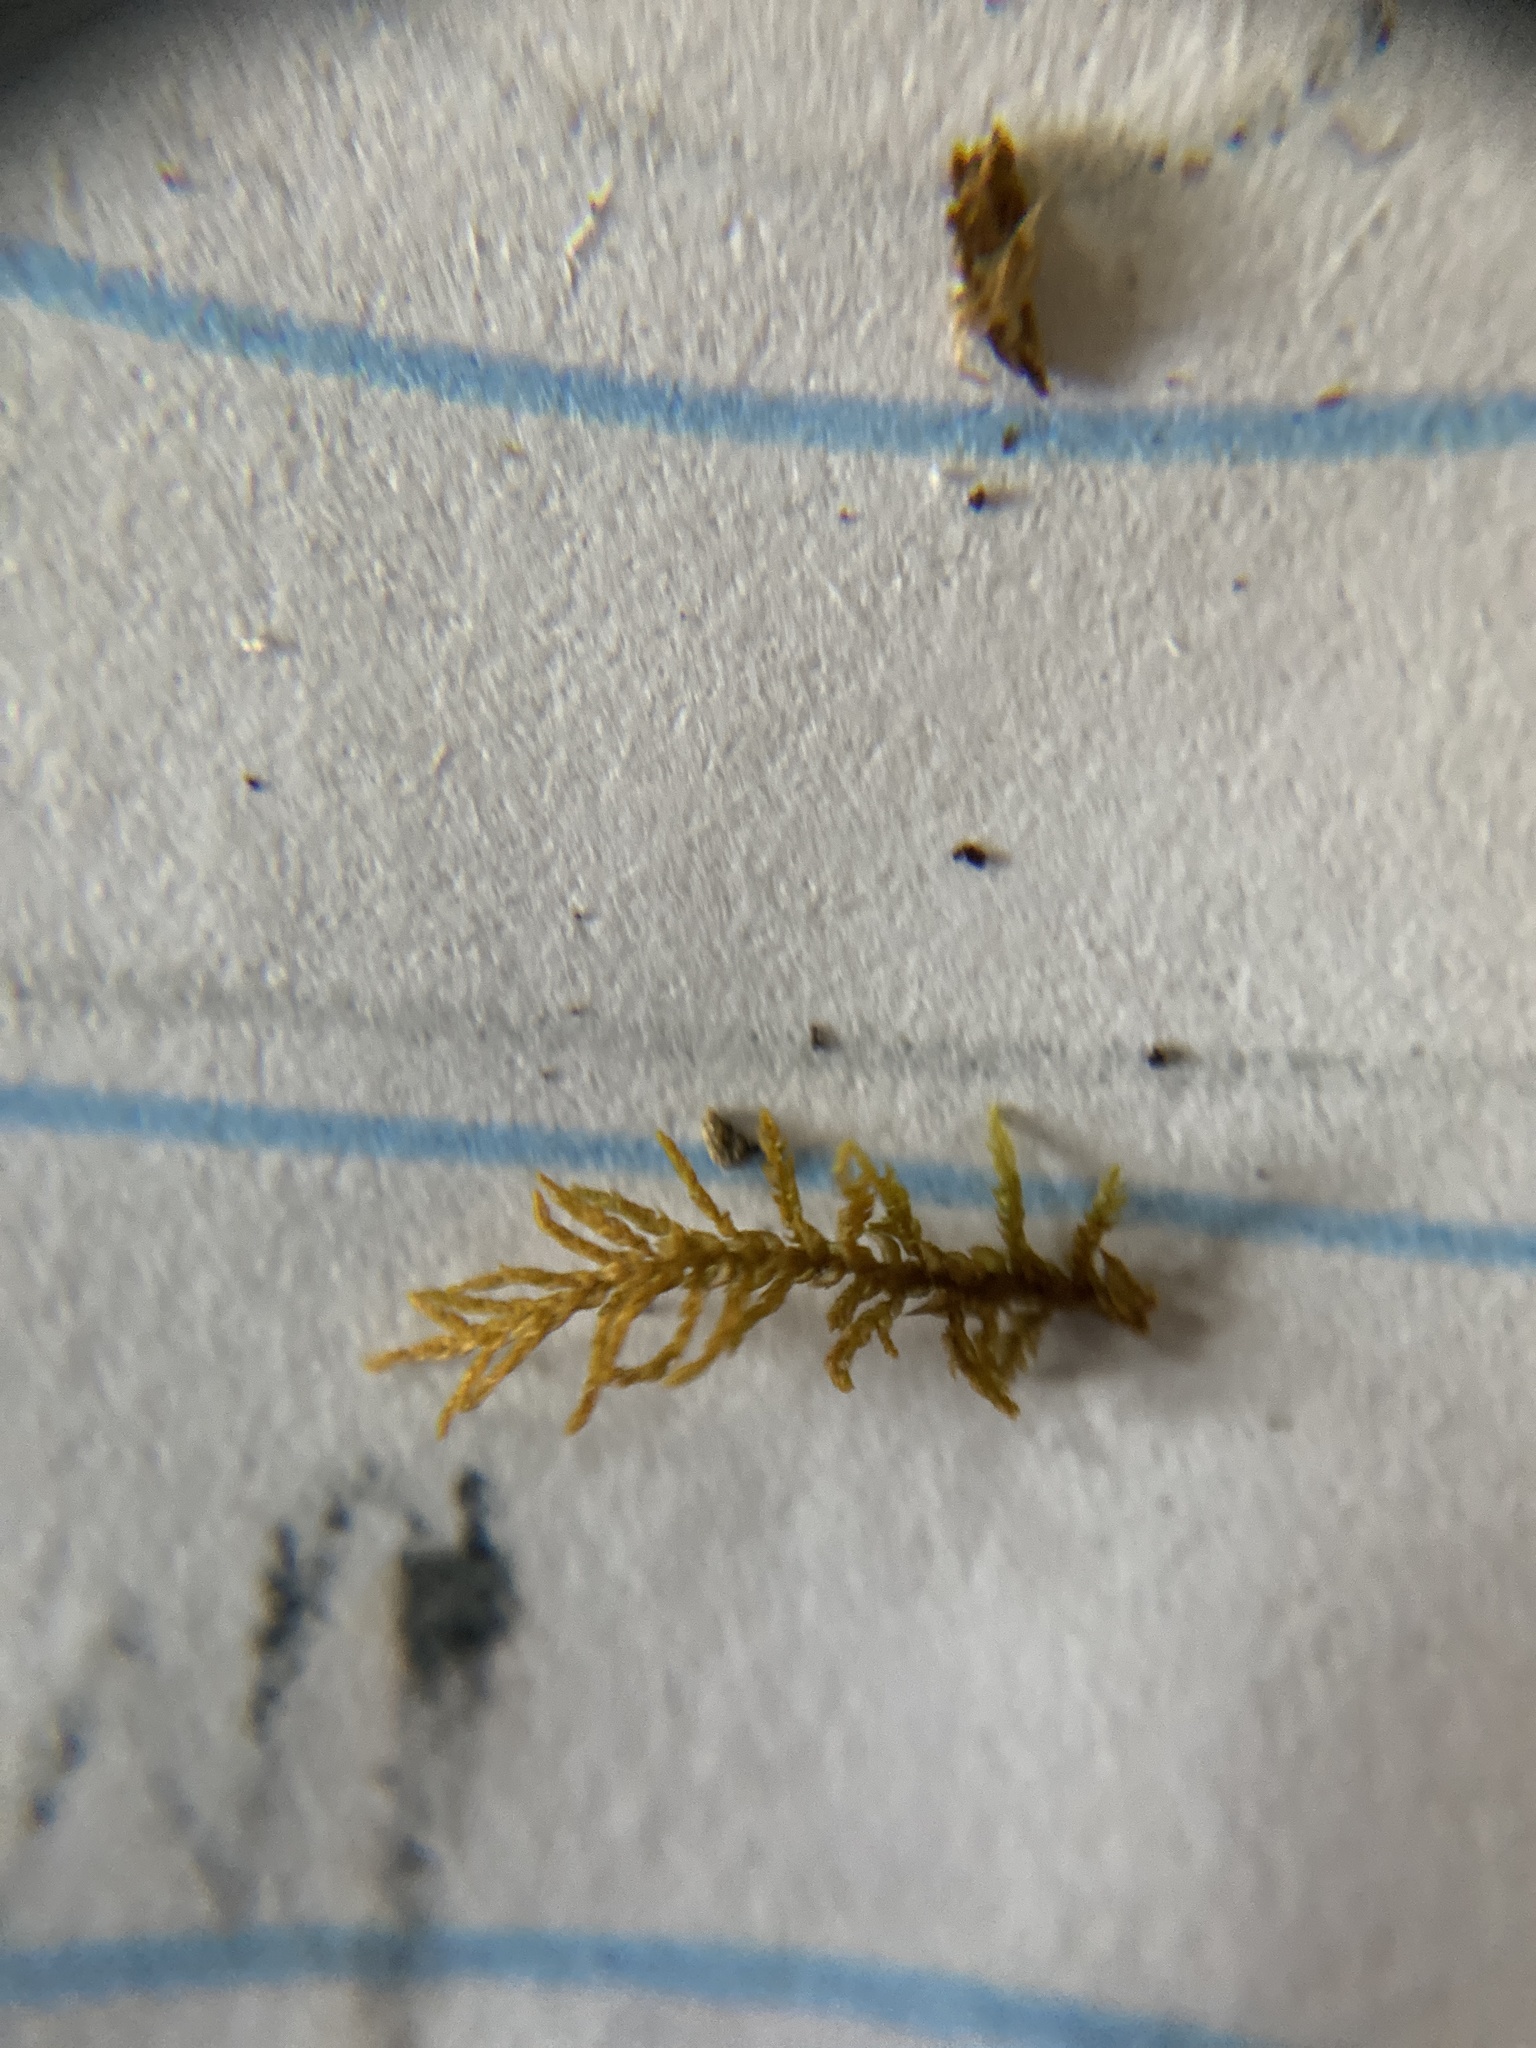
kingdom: Plantae
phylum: Bryophyta
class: Bryopsida
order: Hypnales
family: Thuidiaceae
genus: Thuidium
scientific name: Thuidium delicatulum
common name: Delicate fern moss
